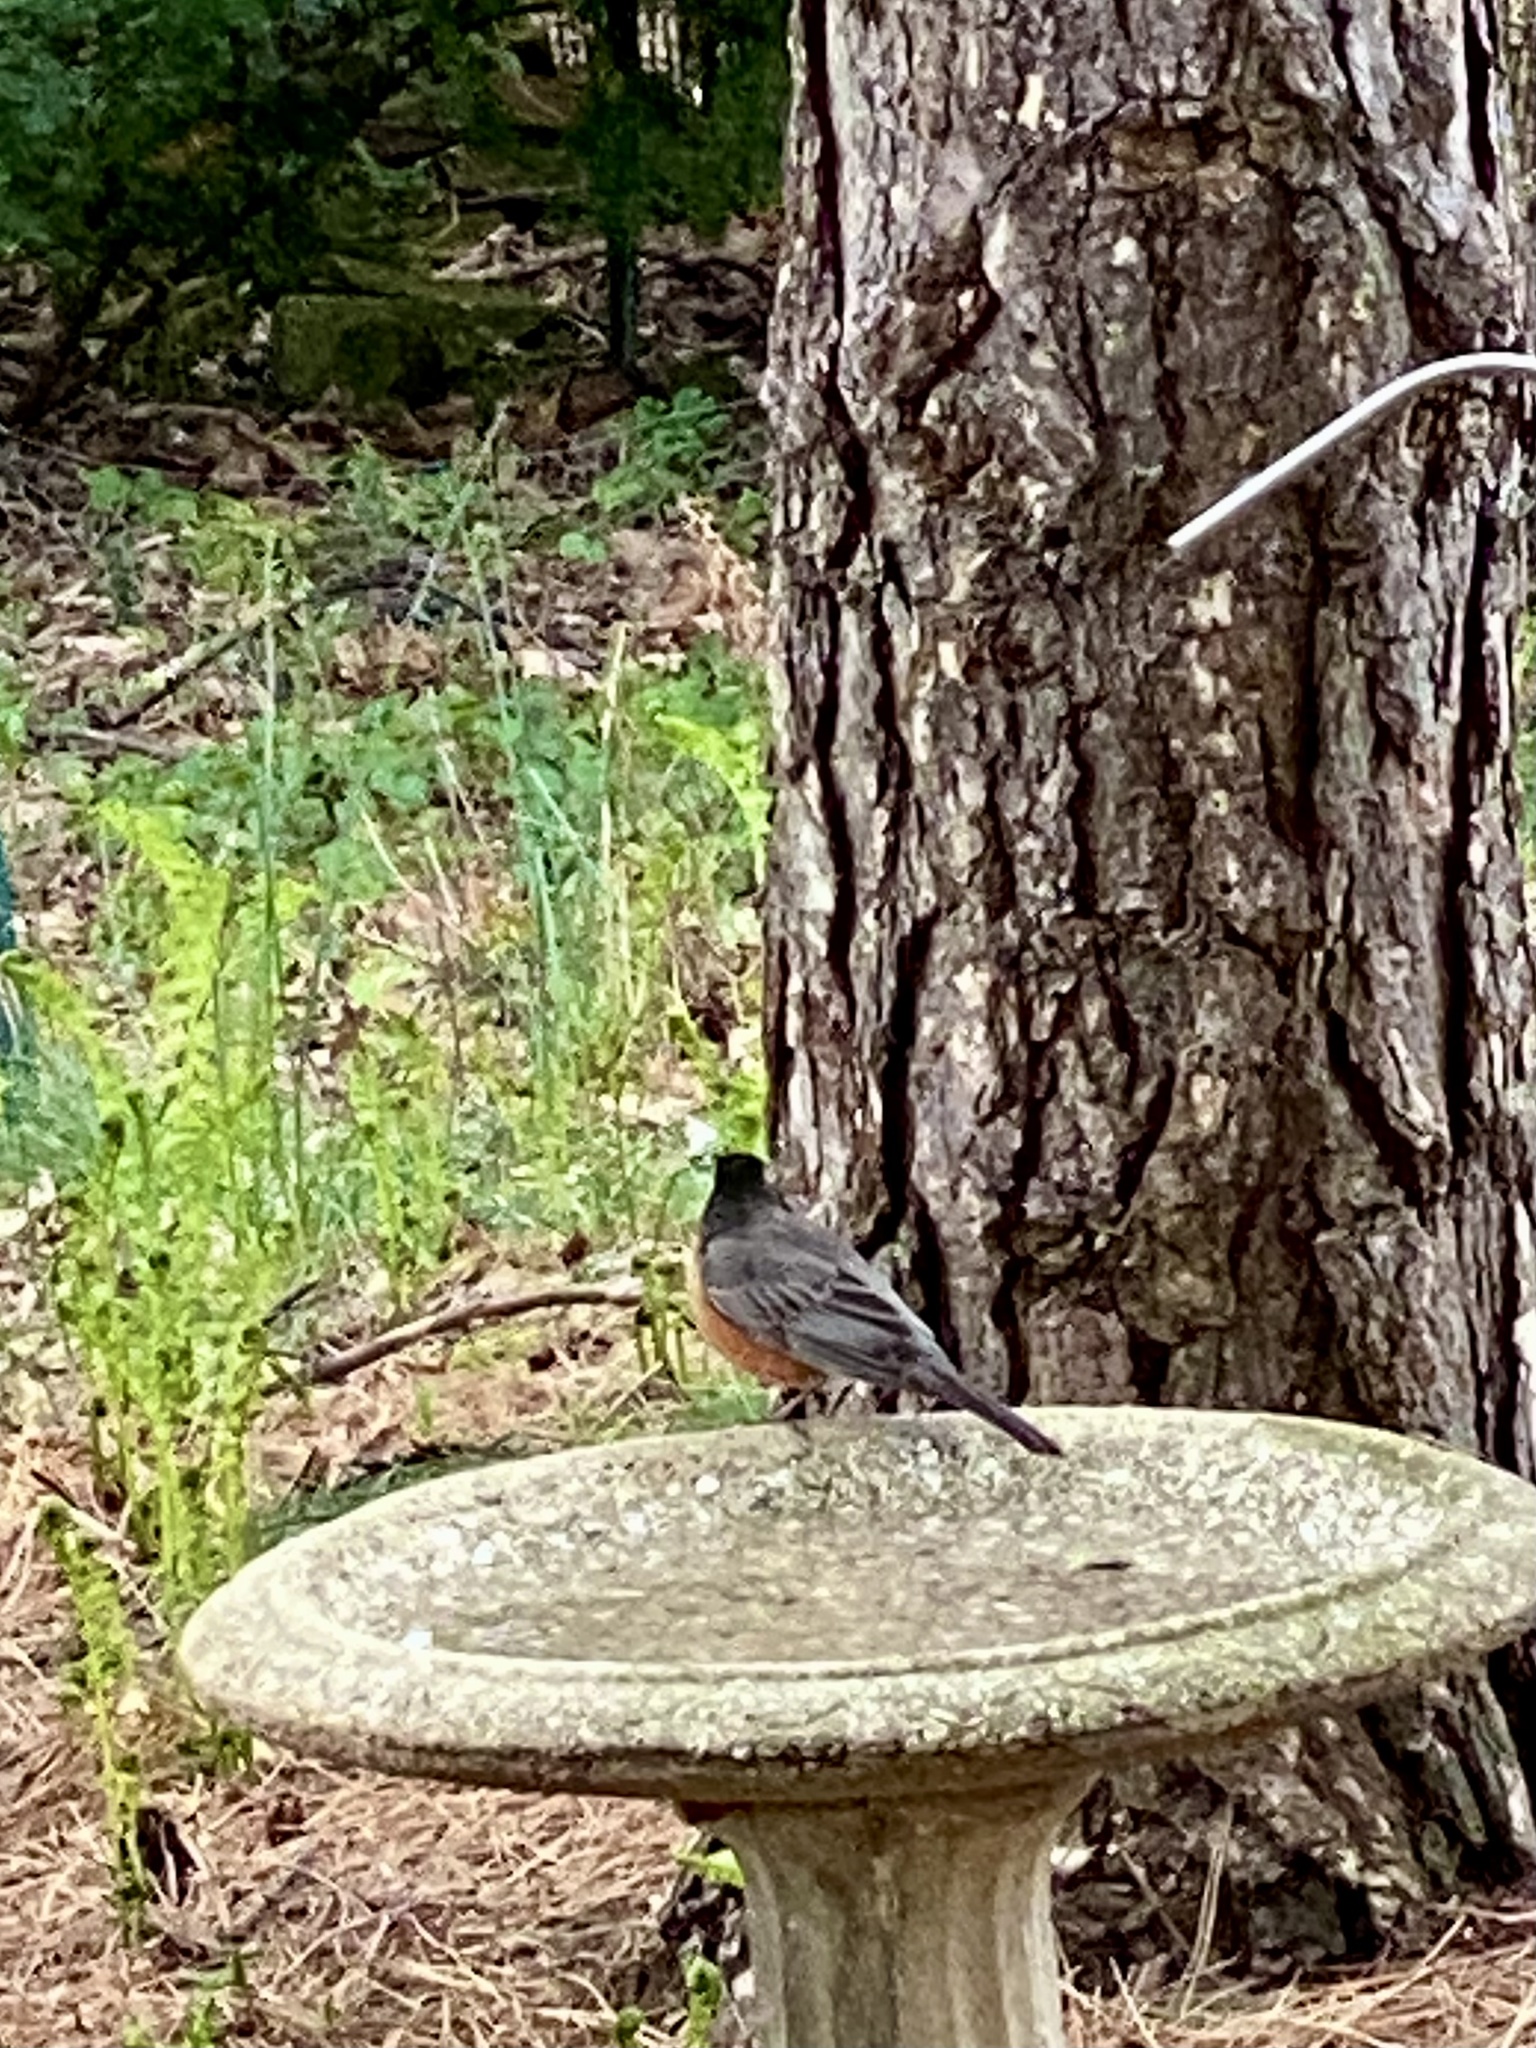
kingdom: Animalia
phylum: Chordata
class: Aves
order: Passeriformes
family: Turdidae
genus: Turdus
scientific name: Turdus migratorius
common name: American robin
